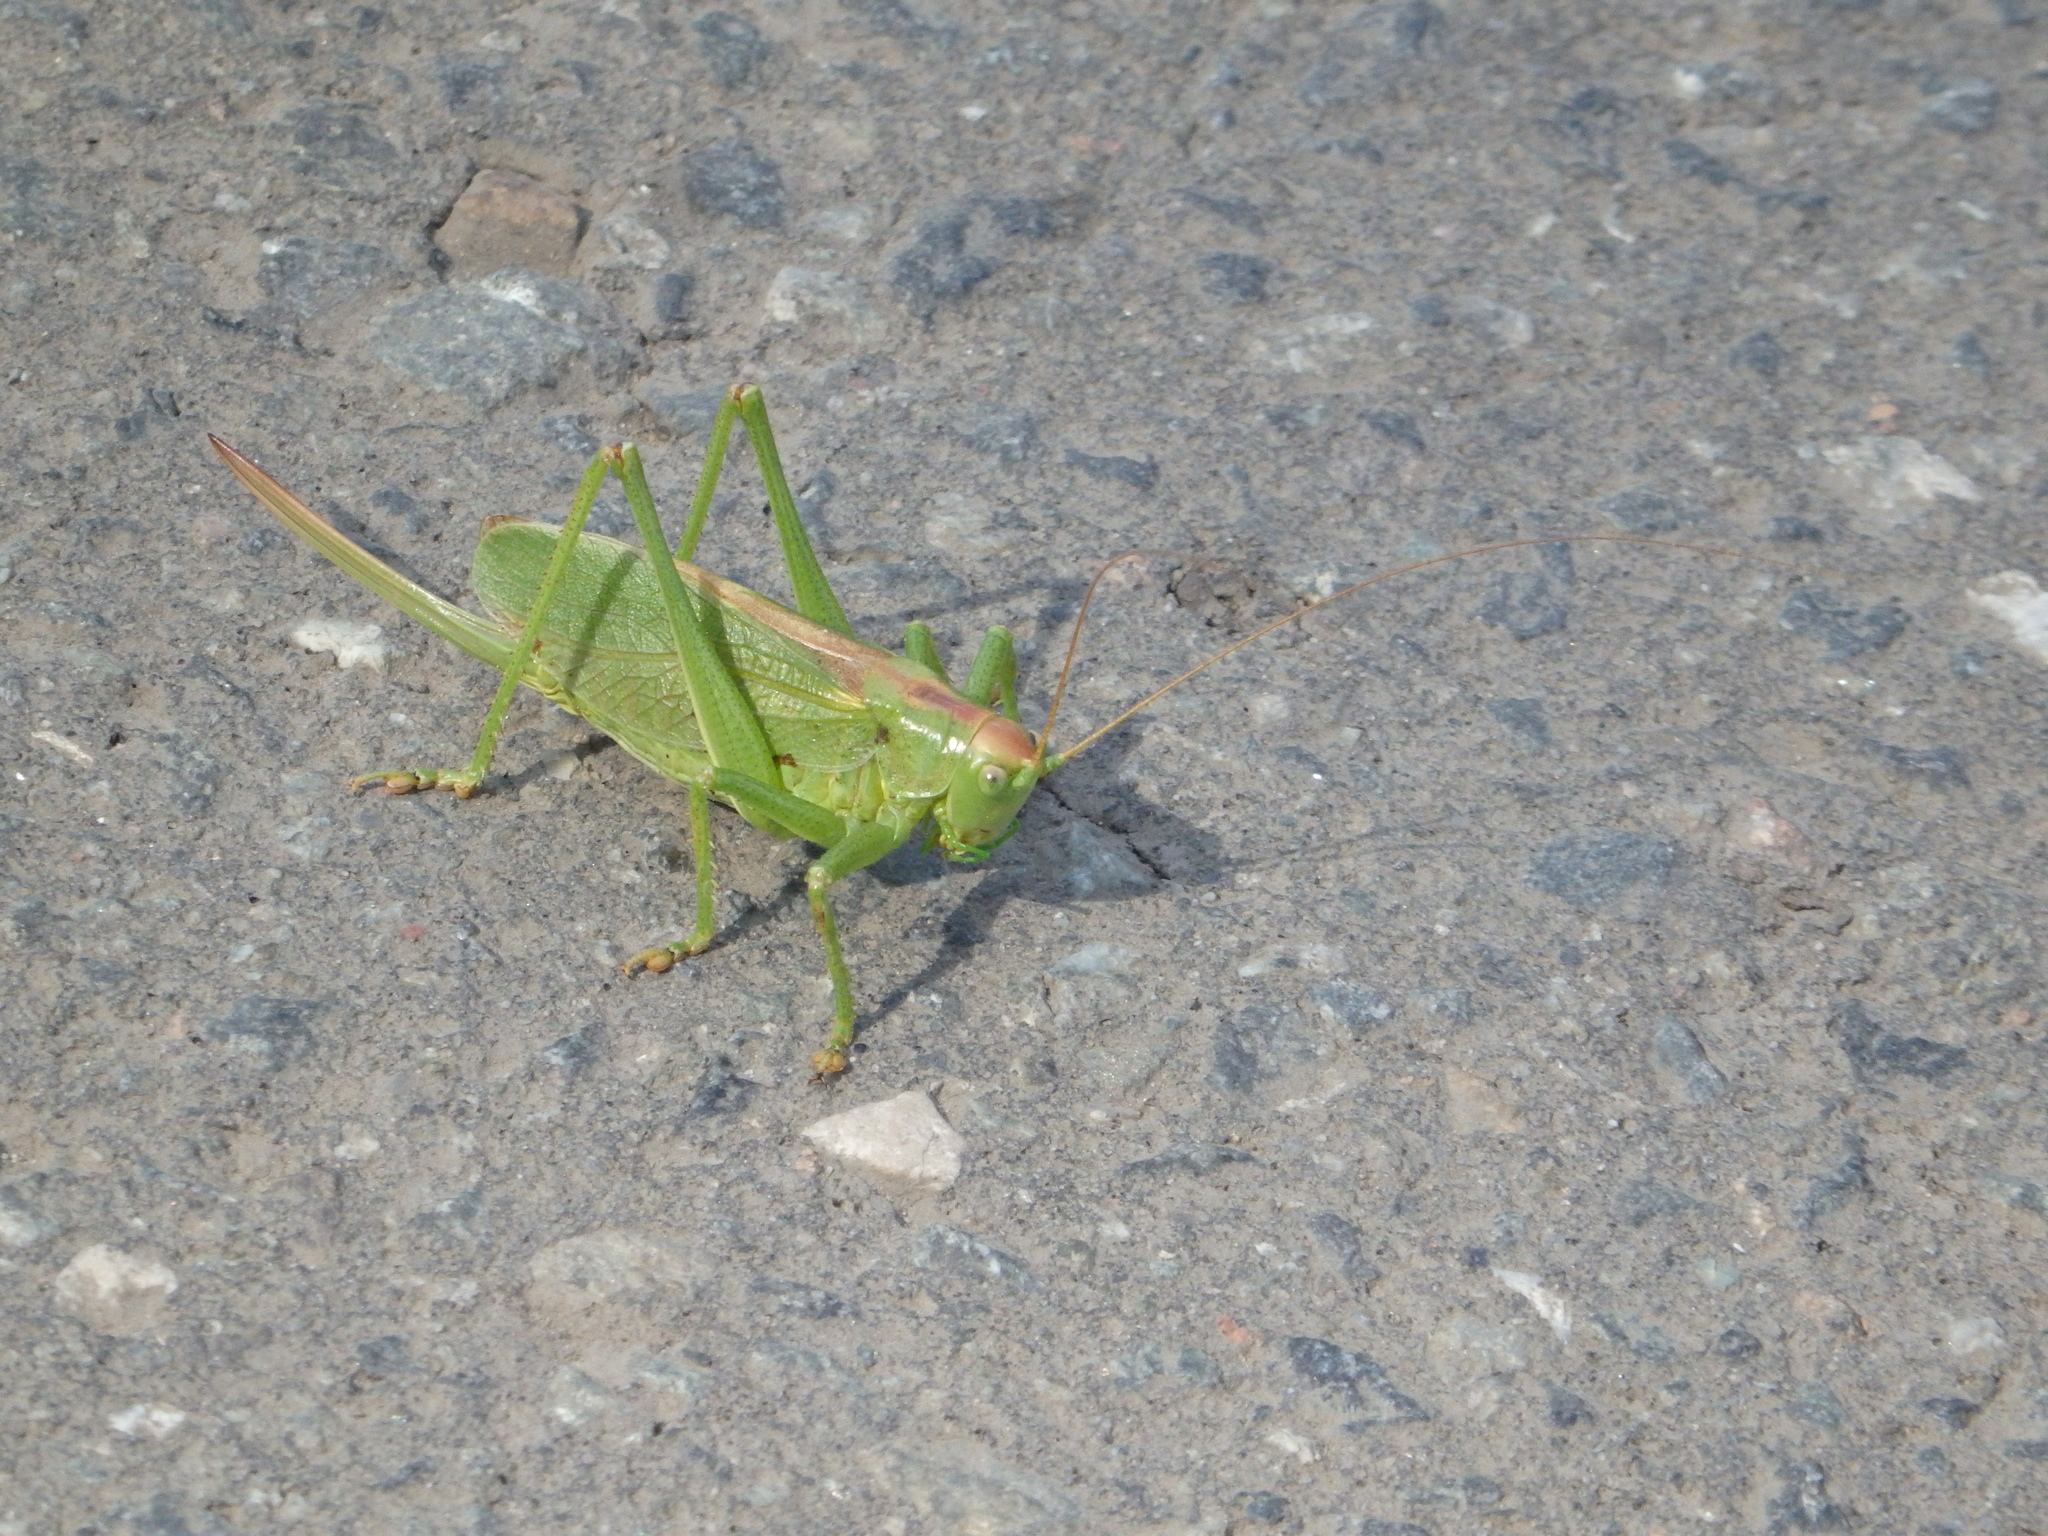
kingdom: Animalia
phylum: Arthropoda
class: Insecta
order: Orthoptera
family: Tettigoniidae
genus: Tettigonia
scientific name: Tettigonia cantans
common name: Upland green bush-cricket
